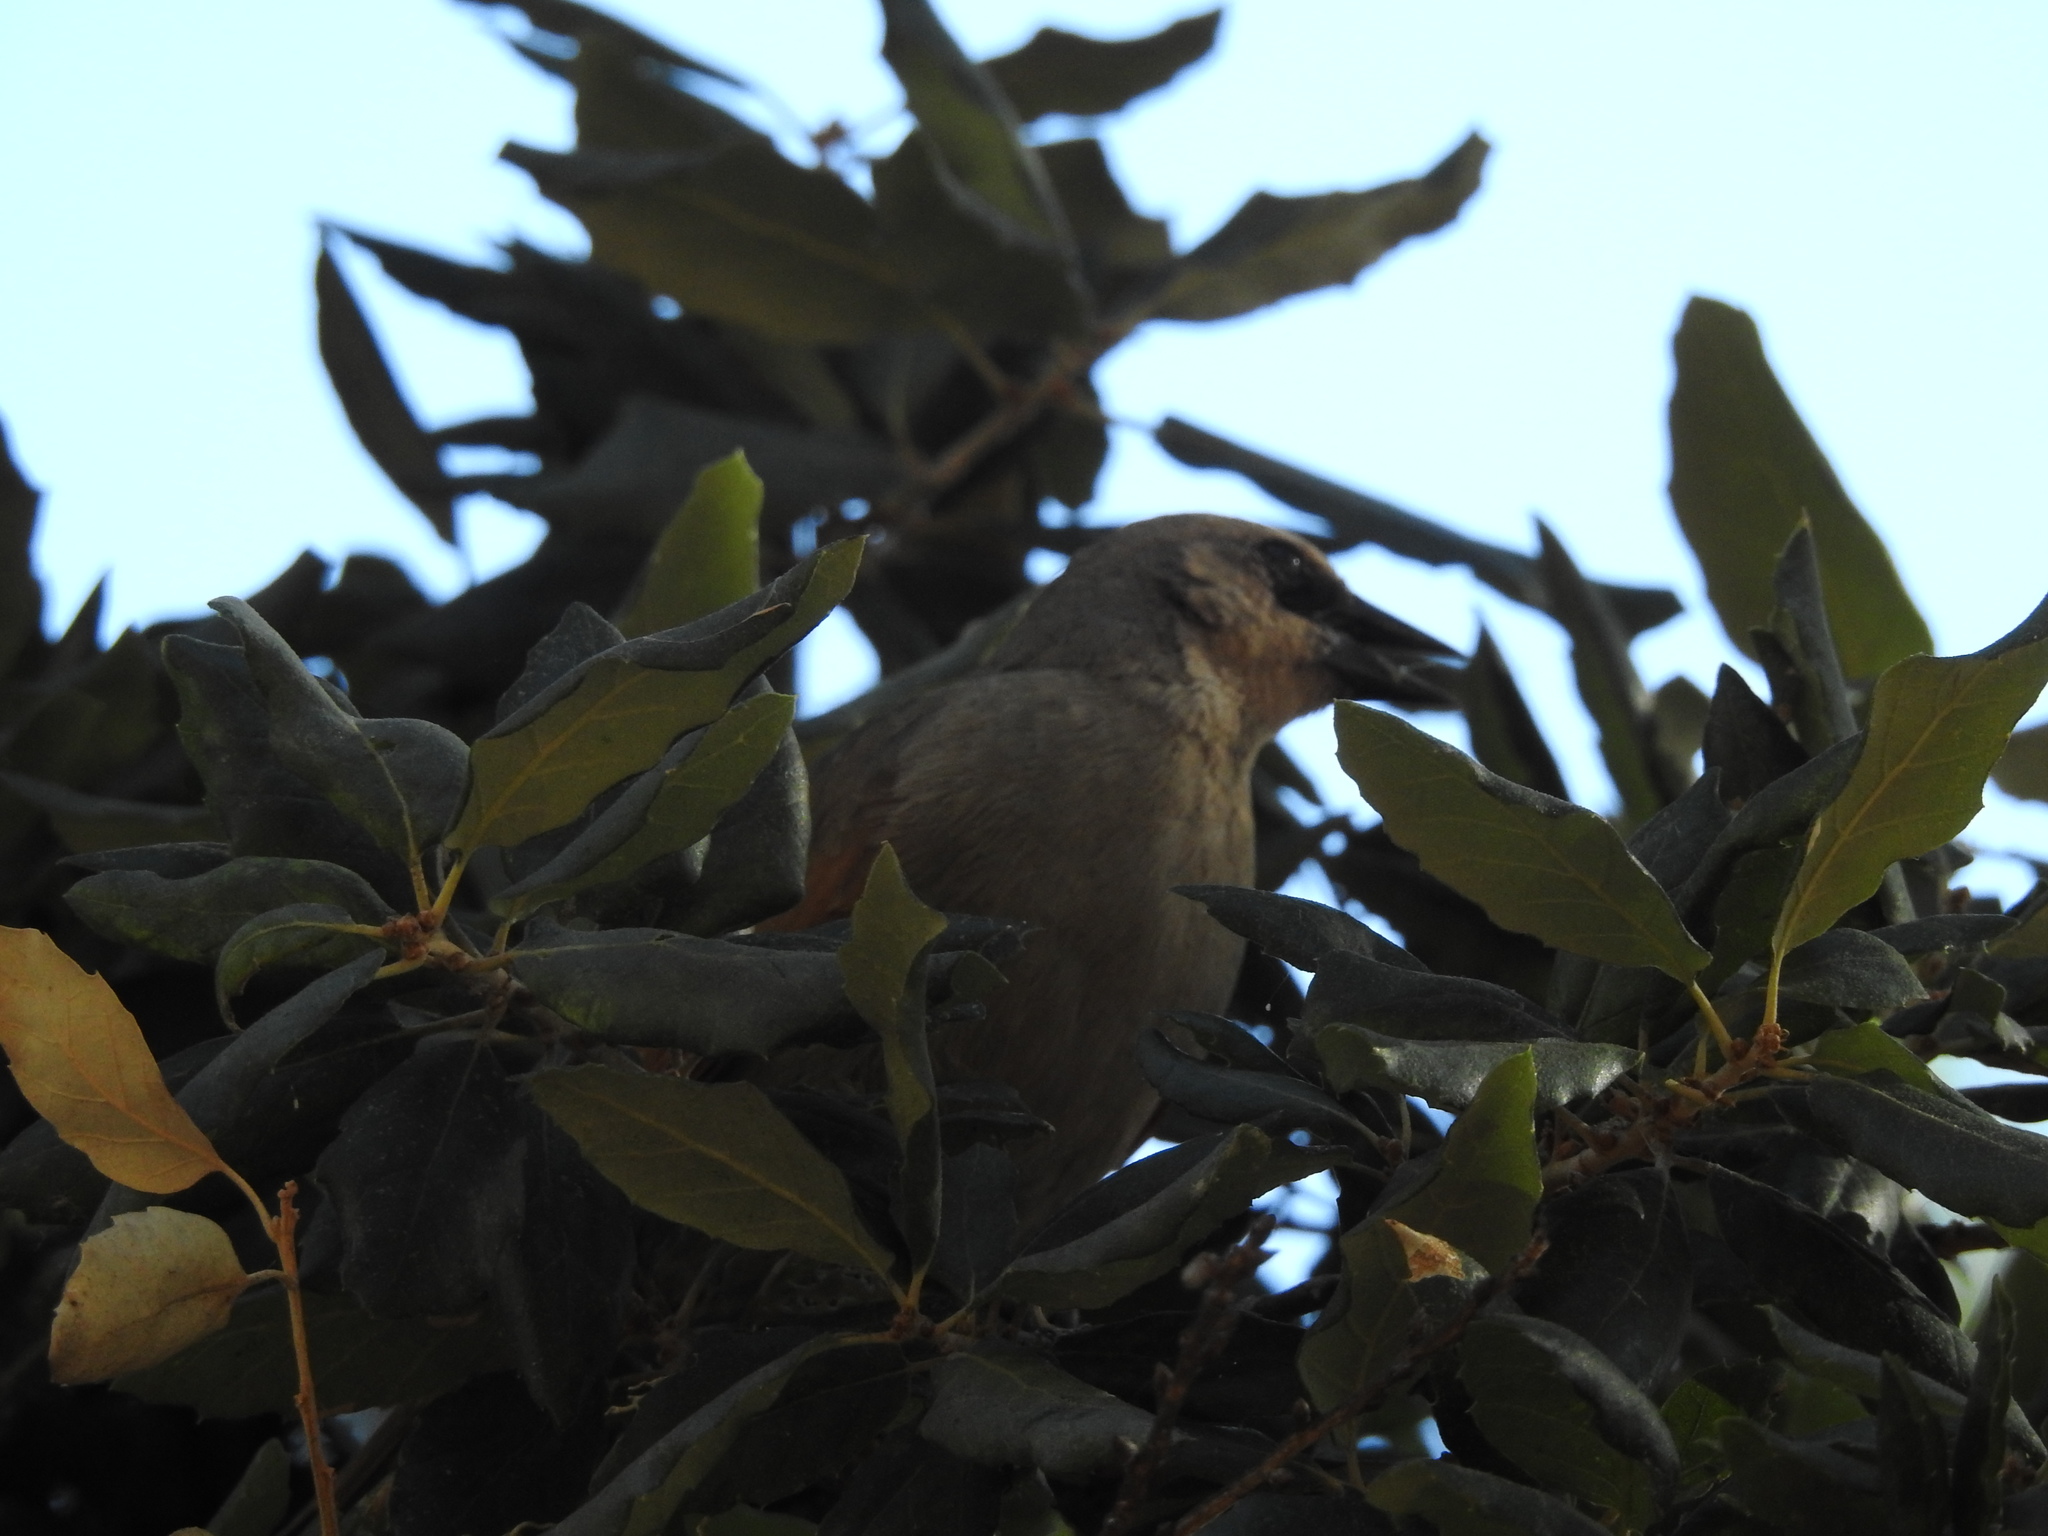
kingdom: Animalia
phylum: Chordata
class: Aves
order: Passeriformes
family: Icteridae
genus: Agelaioides
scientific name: Agelaioides badius
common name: Baywing
